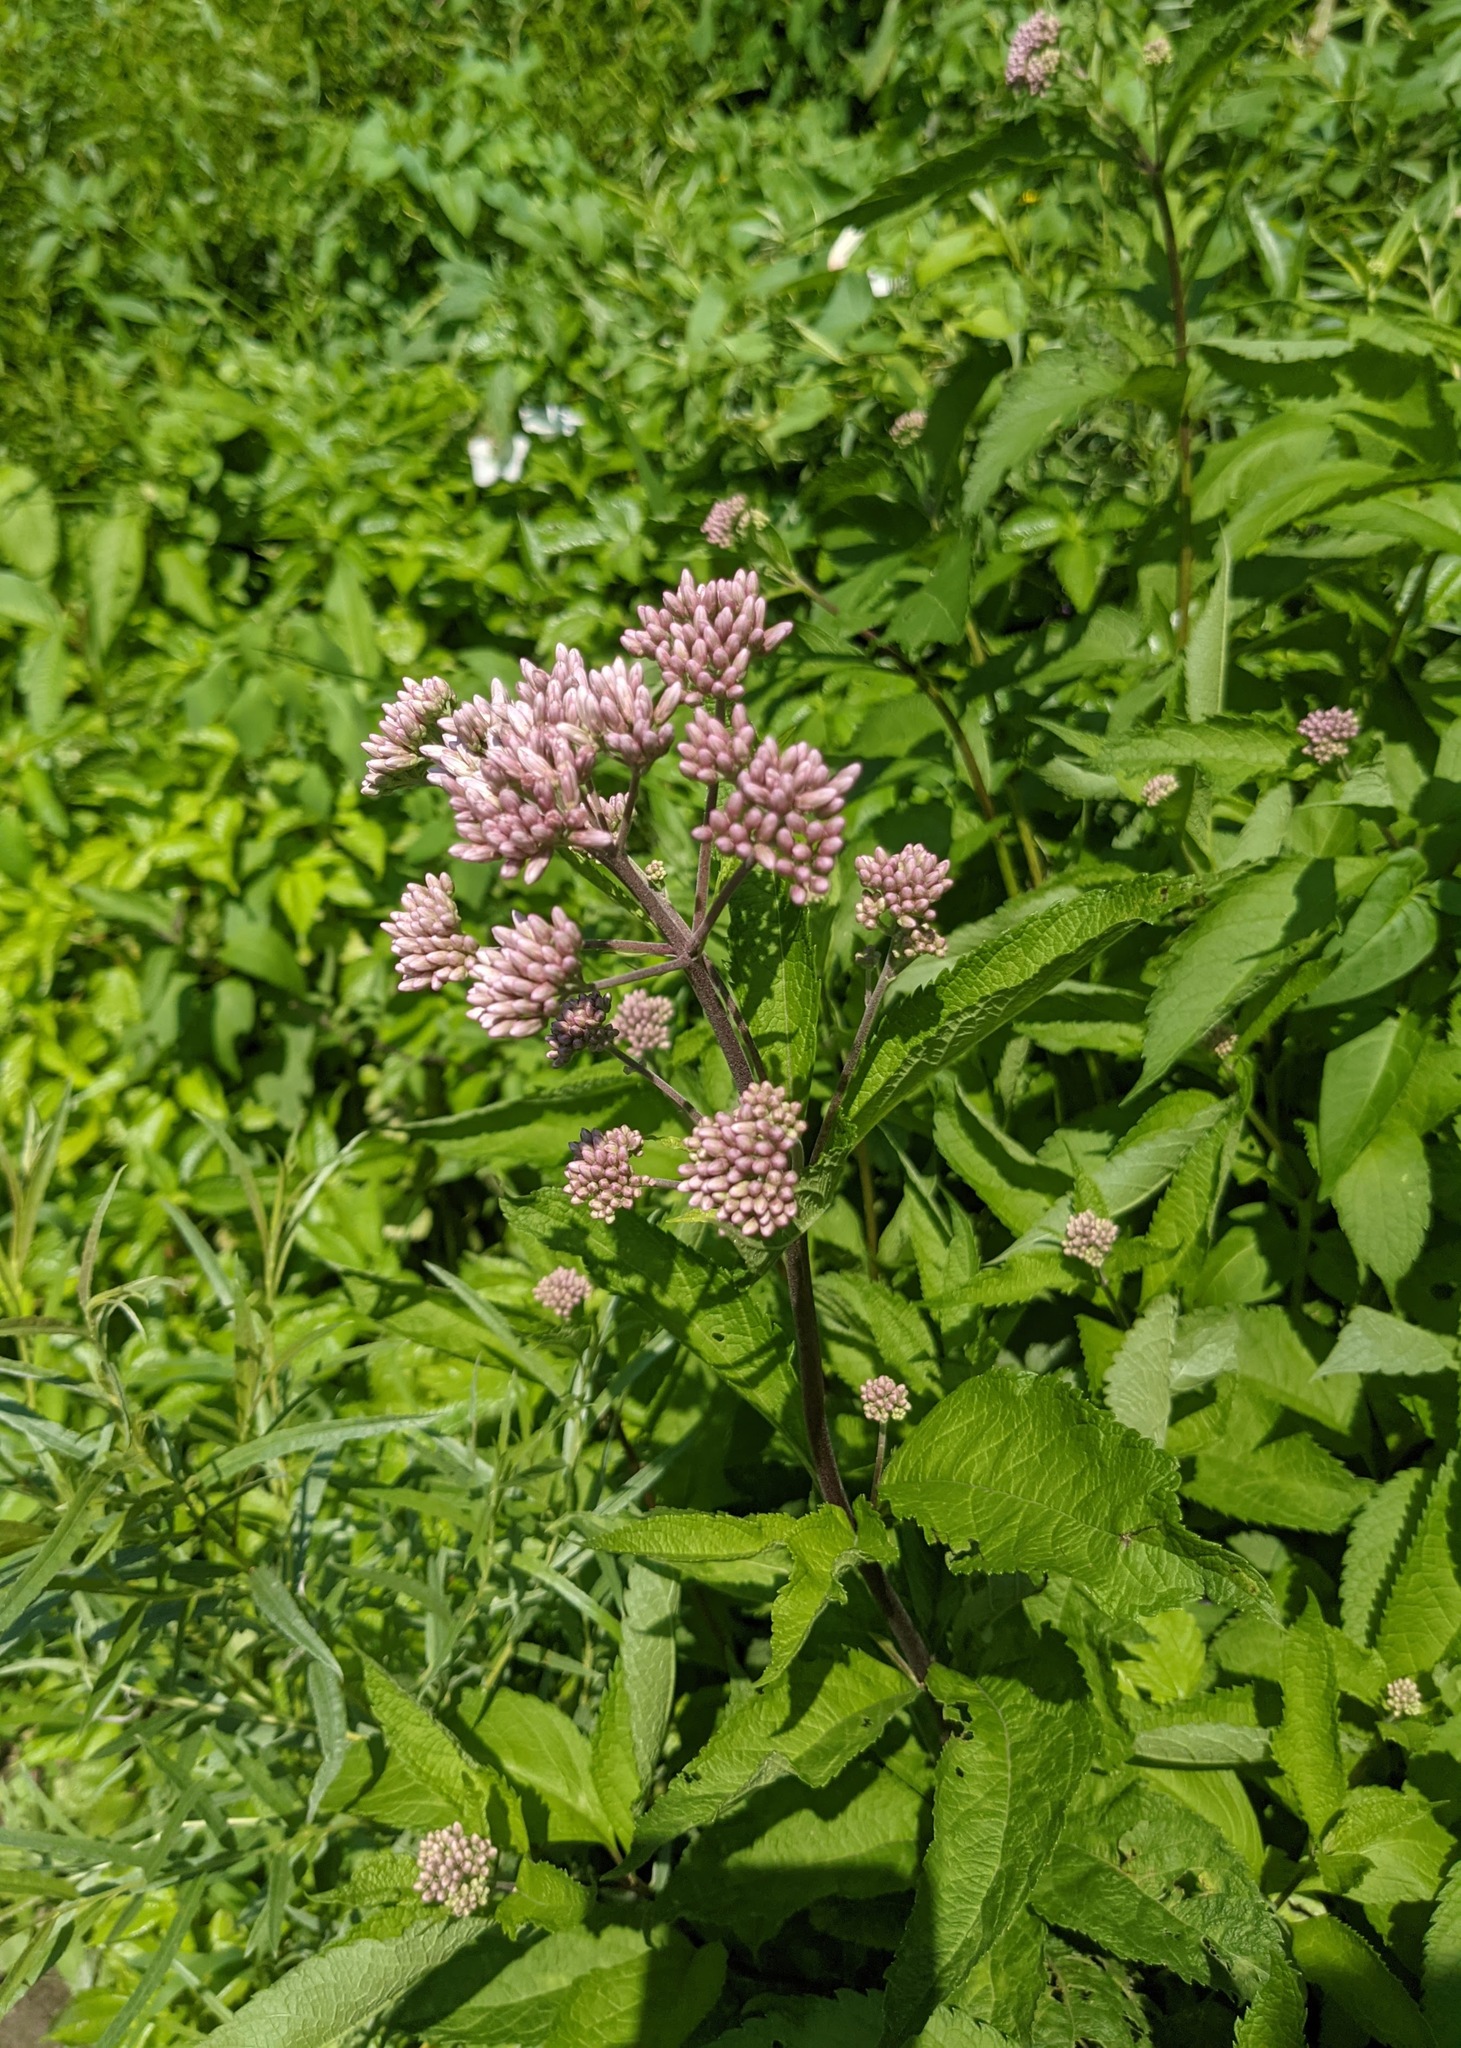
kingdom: Plantae
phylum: Tracheophyta
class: Magnoliopsida
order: Asterales
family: Asteraceae
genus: Eutrochium
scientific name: Eutrochium maculatum
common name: Spotted joe pye weed
